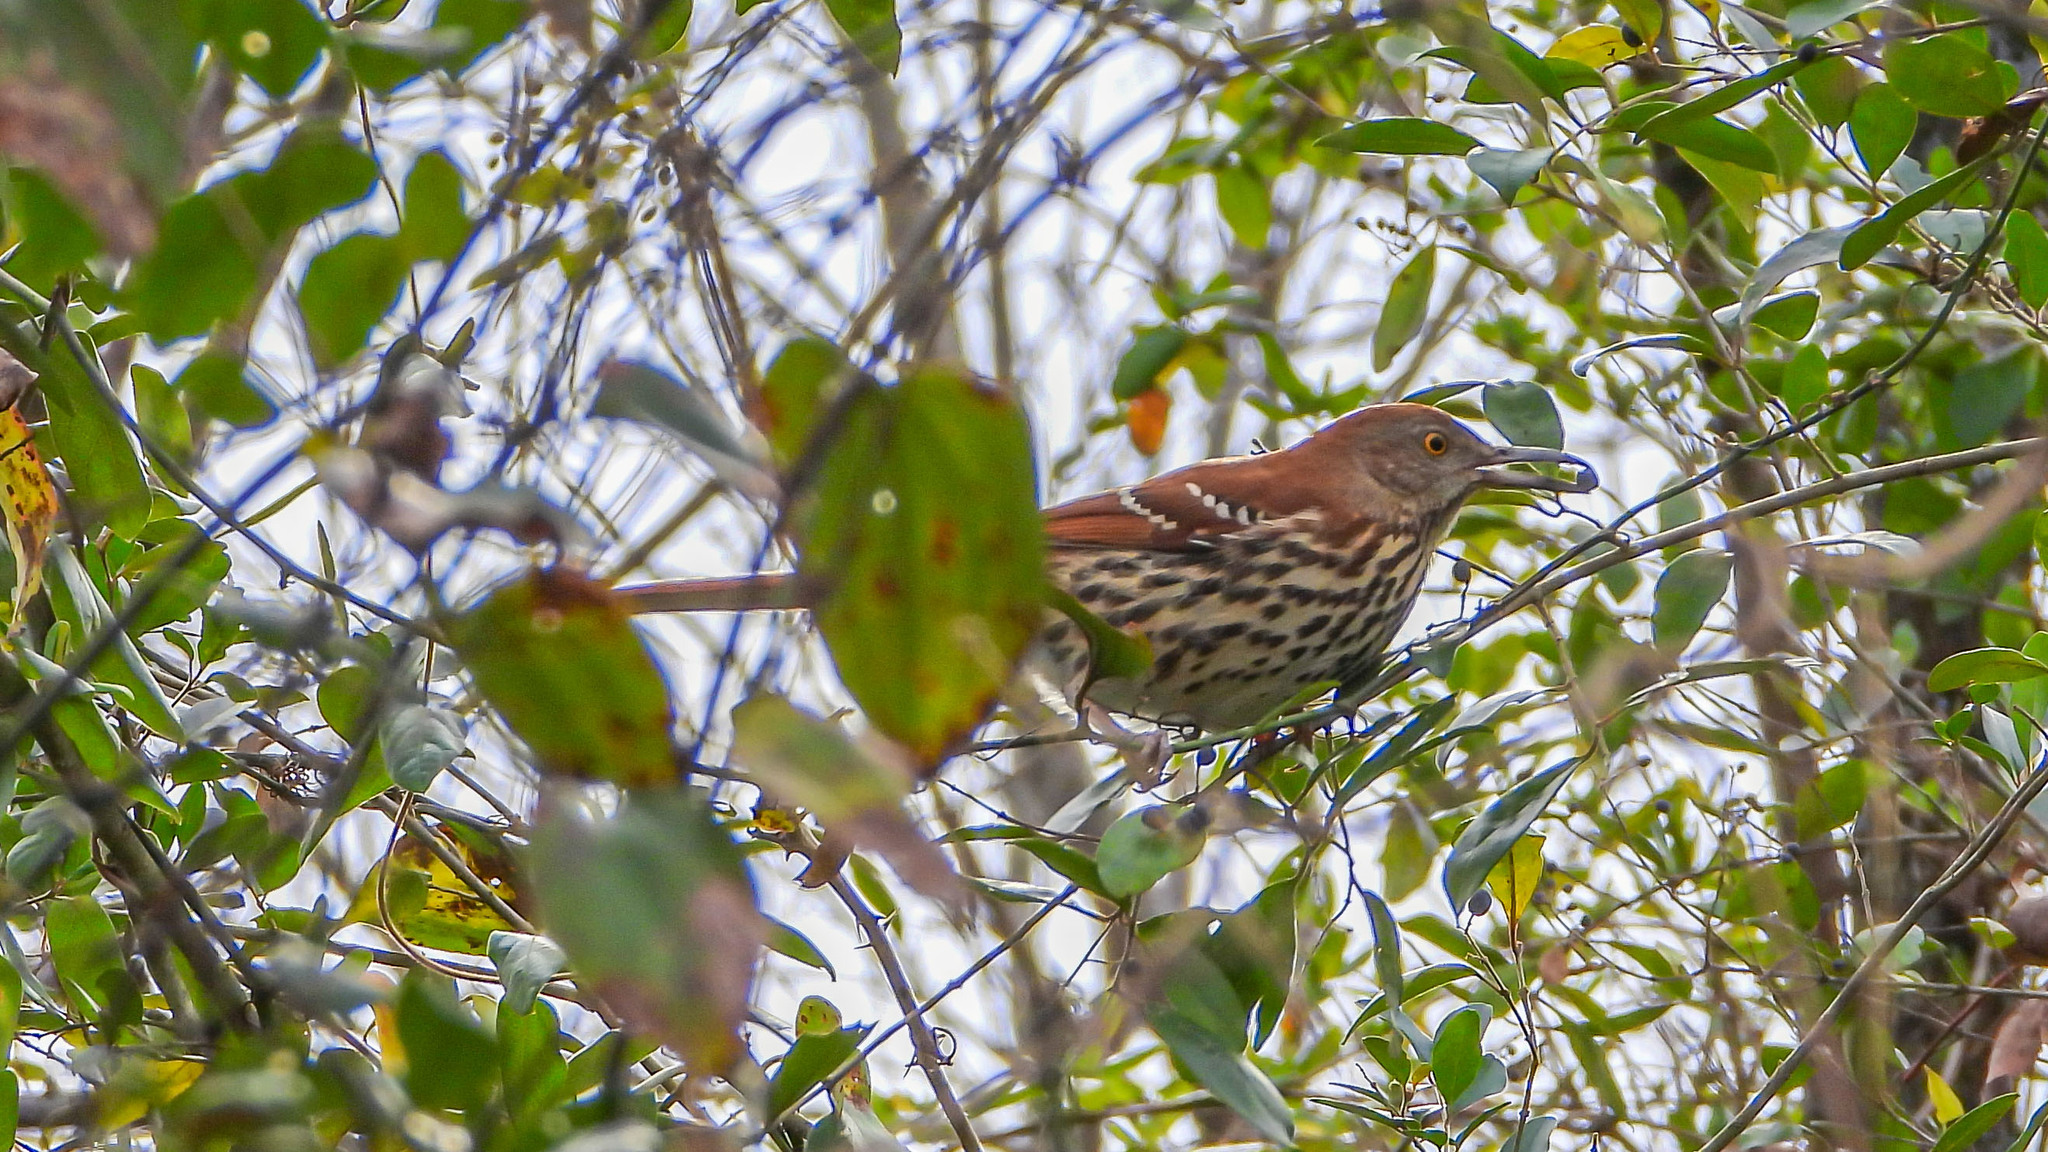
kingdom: Animalia
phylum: Chordata
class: Aves
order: Passeriformes
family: Mimidae
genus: Toxostoma
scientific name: Toxostoma rufum
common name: Brown thrasher
